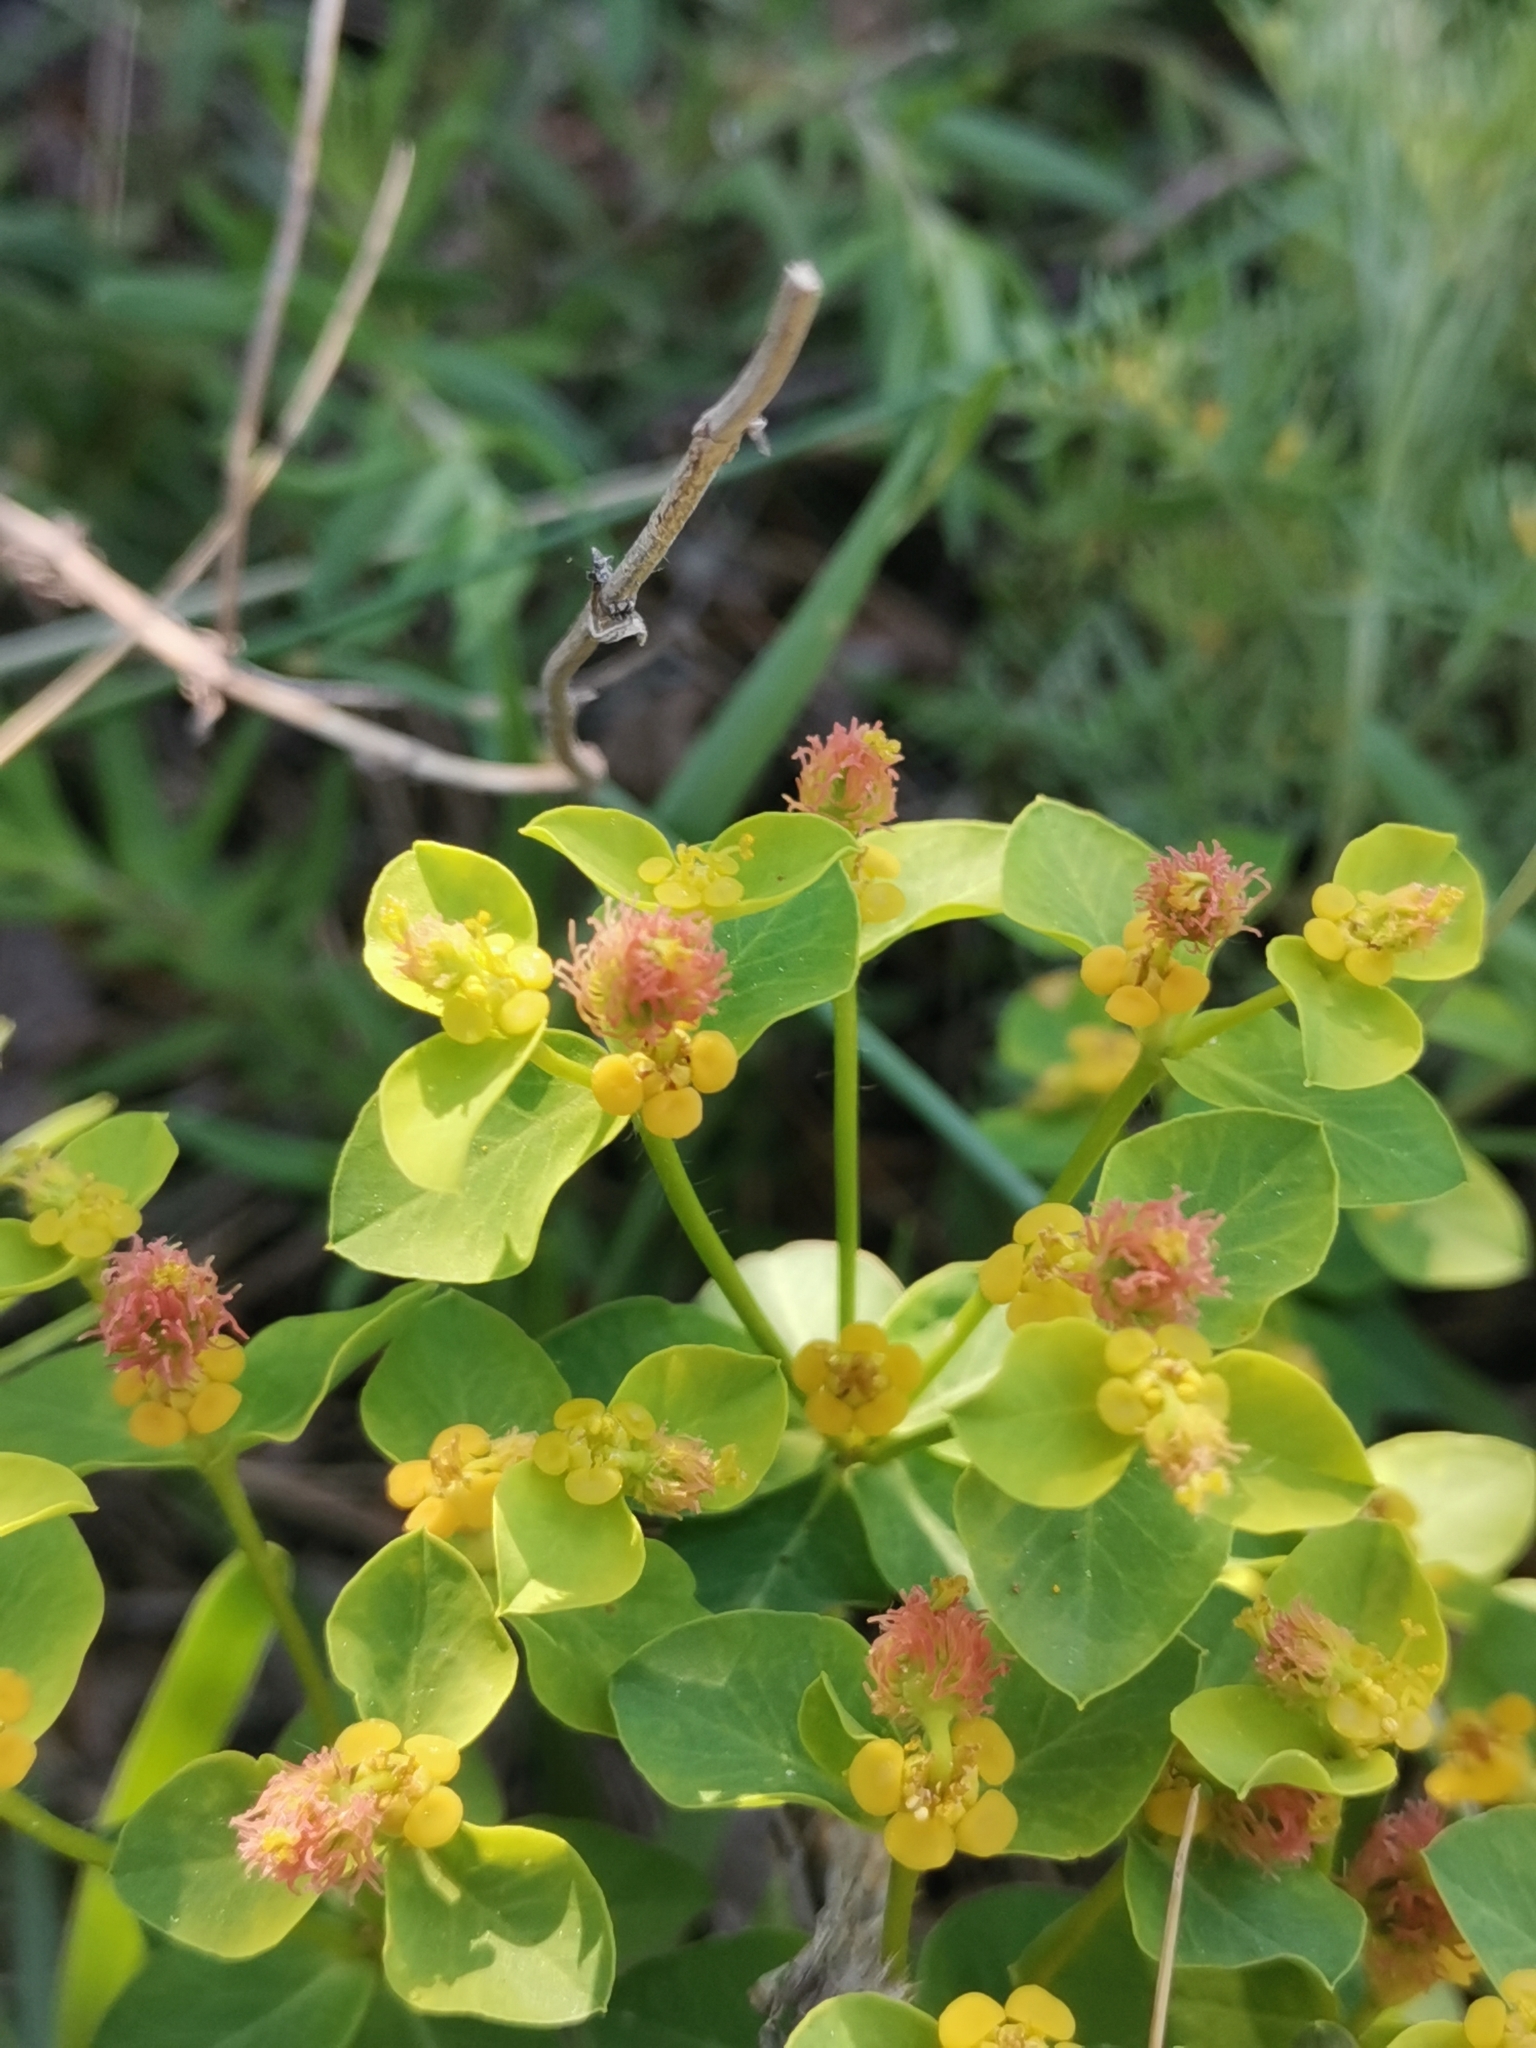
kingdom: Plantae
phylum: Tracheophyta
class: Magnoliopsida
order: Malpighiales
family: Euphorbiaceae
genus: Euphorbia
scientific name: Euphorbia fragifera
